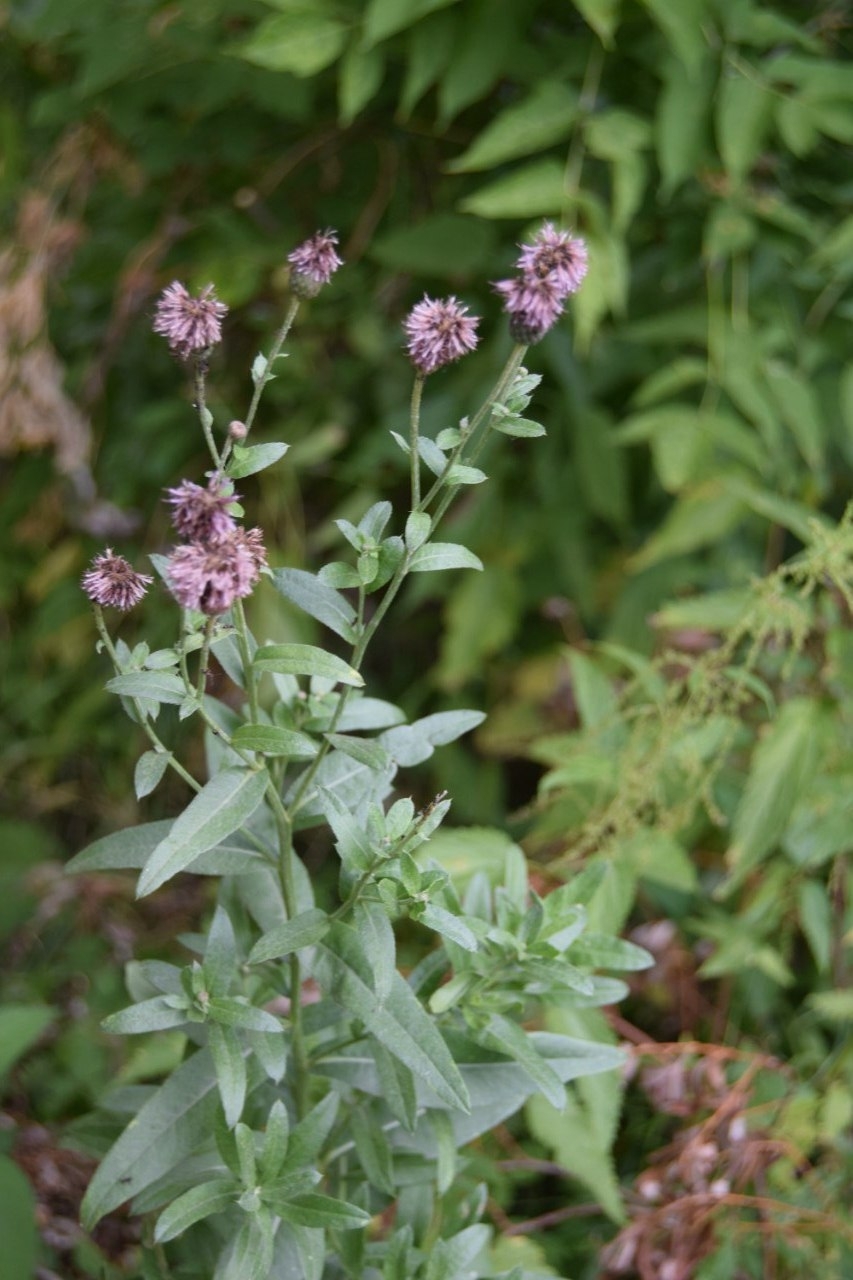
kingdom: Plantae
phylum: Tracheophyta
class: Magnoliopsida
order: Asterales
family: Asteraceae
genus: Cirsium
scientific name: Cirsium arvense
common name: Creeping thistle
